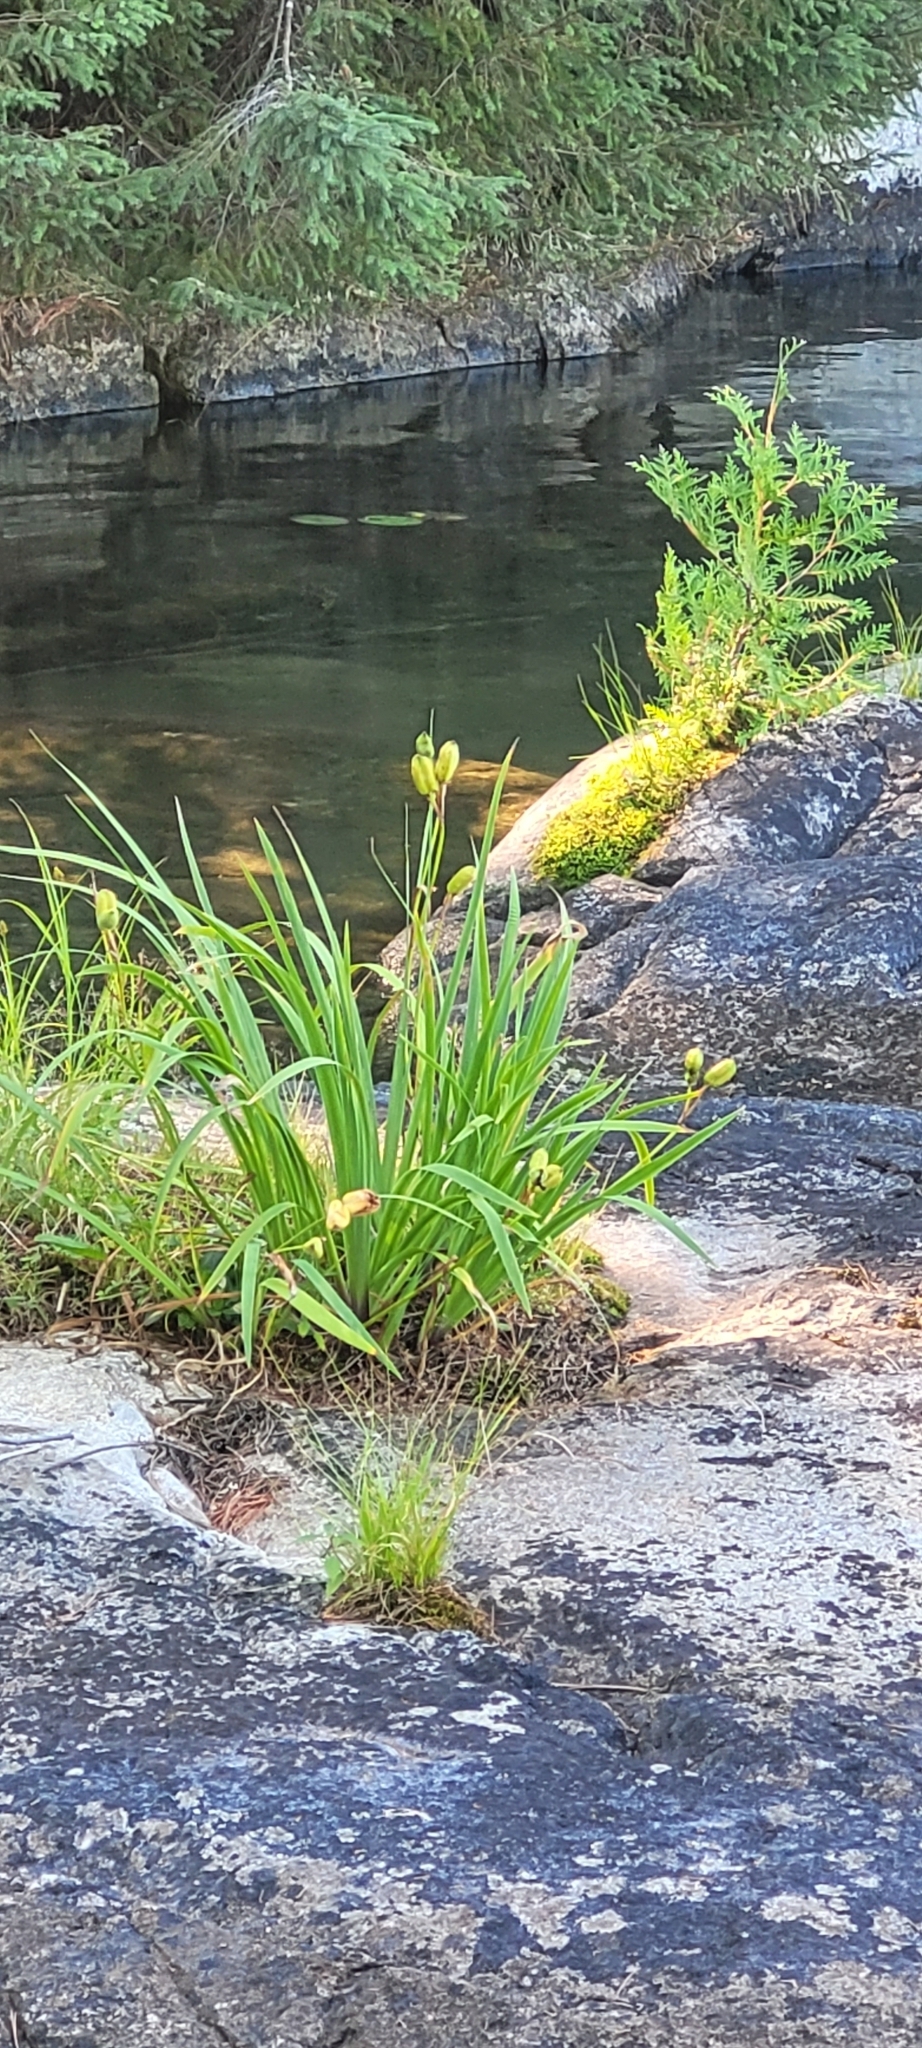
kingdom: Plantae
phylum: Tracheophyta
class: Liliopsida
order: Asparagales
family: Iridaceae
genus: Iris
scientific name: Iris versicolor
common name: Purple iris
